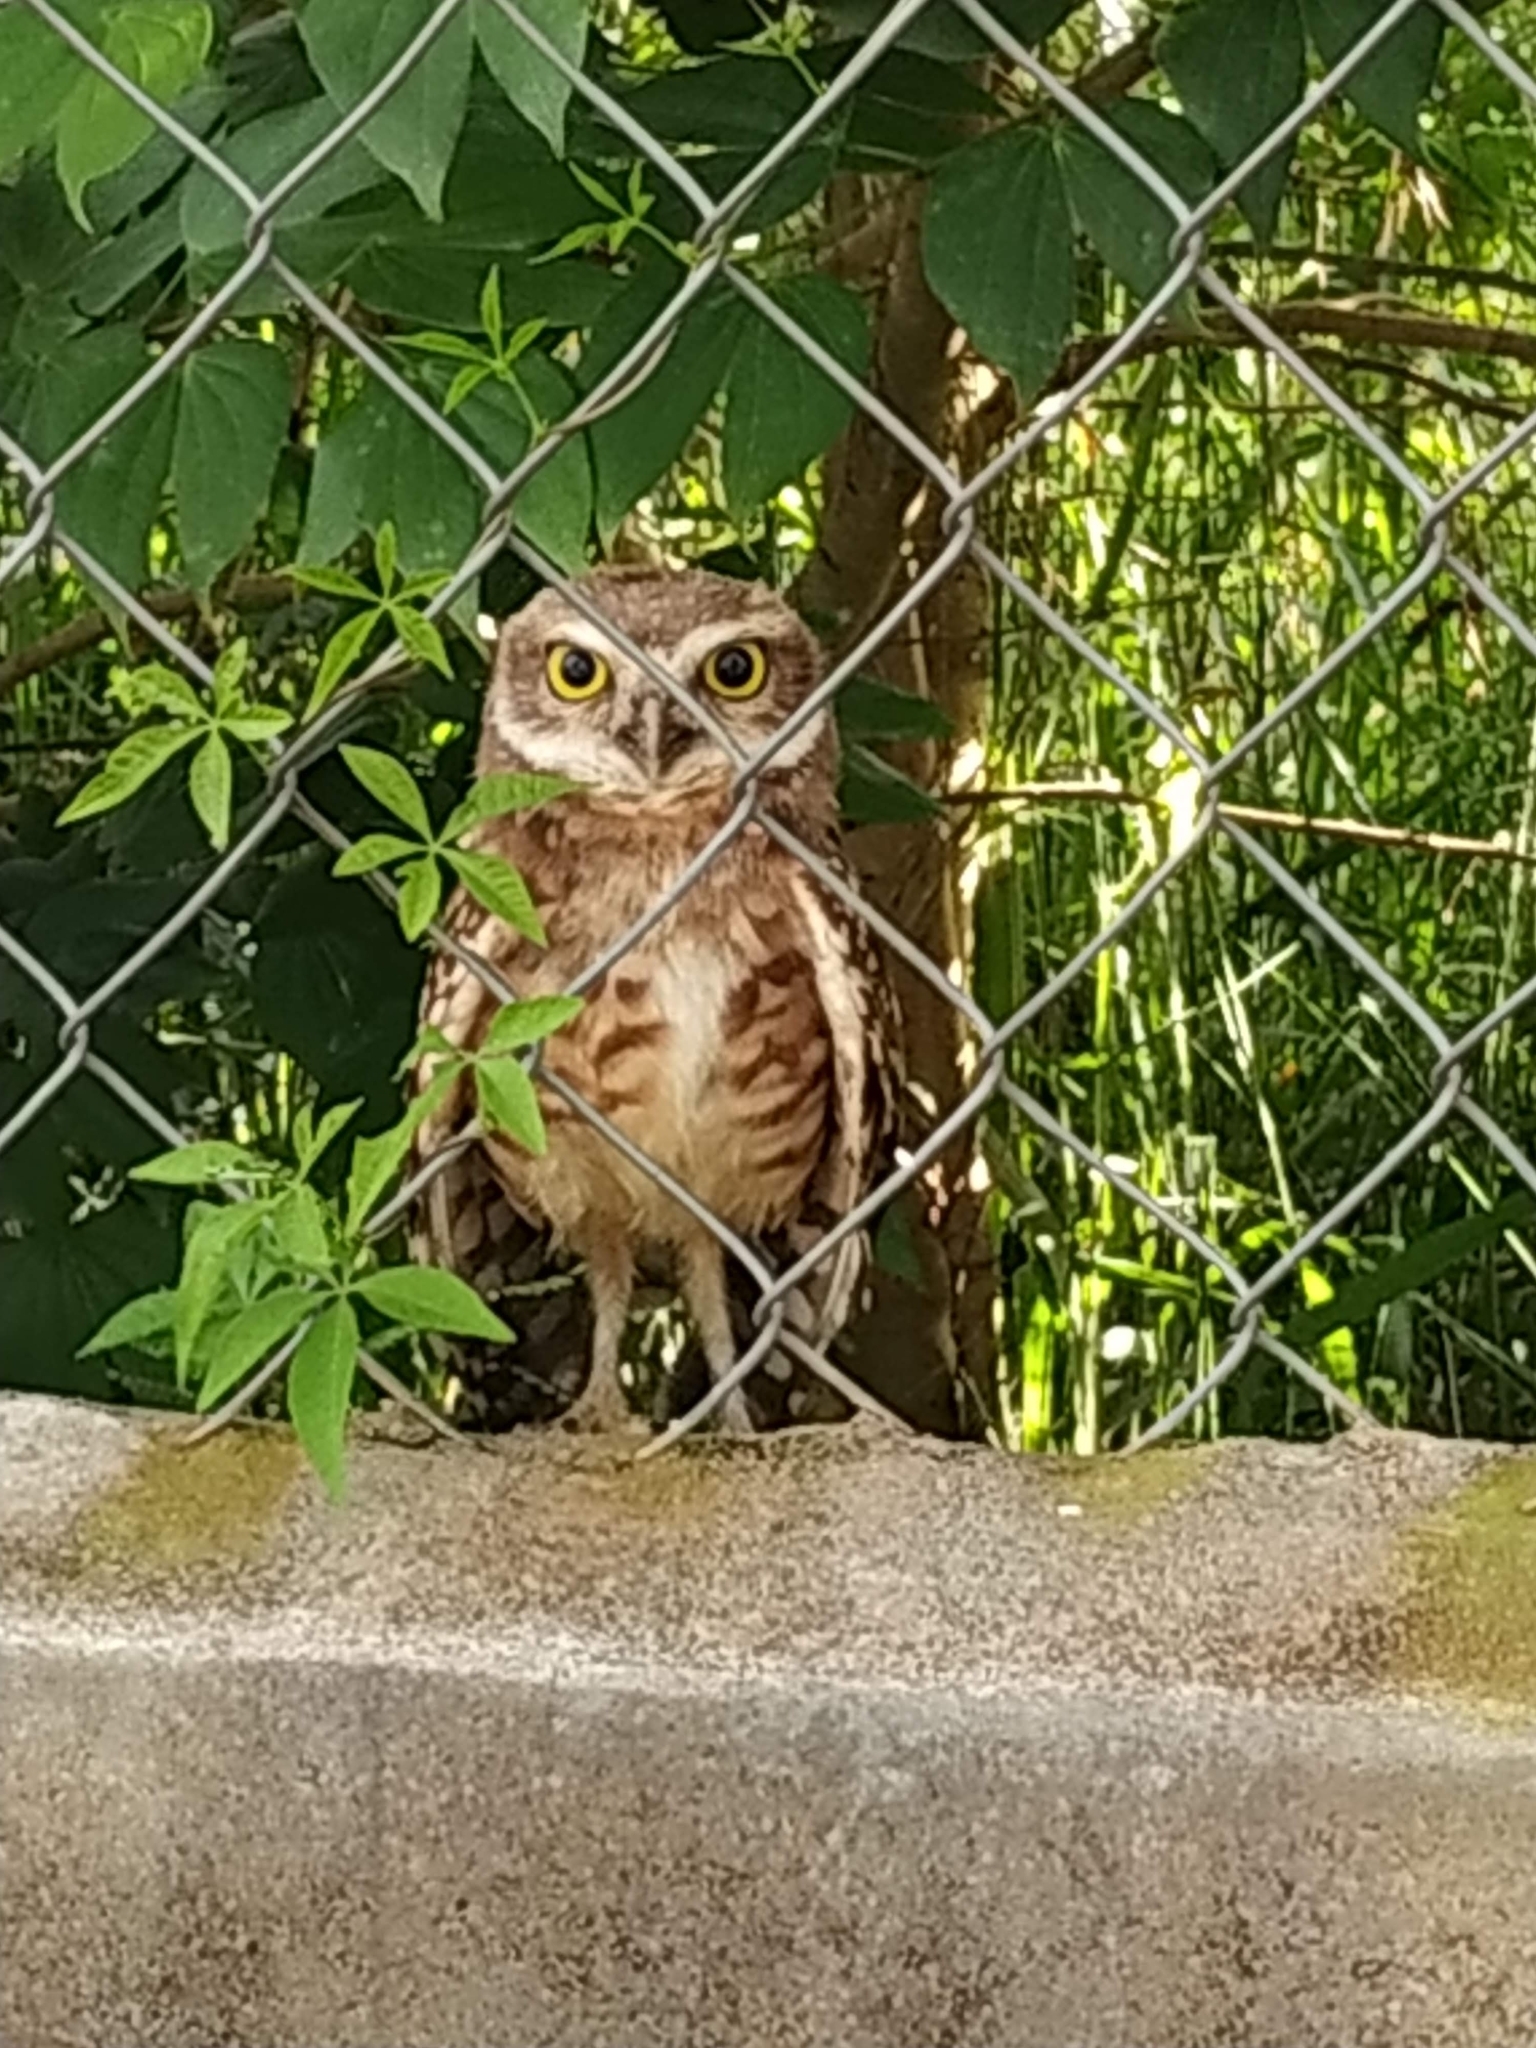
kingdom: Animalia
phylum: Chordata
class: Aves
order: Strigiformes
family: Strigidae
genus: Athene
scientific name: Athene cunicularia
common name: Burrowing owl
